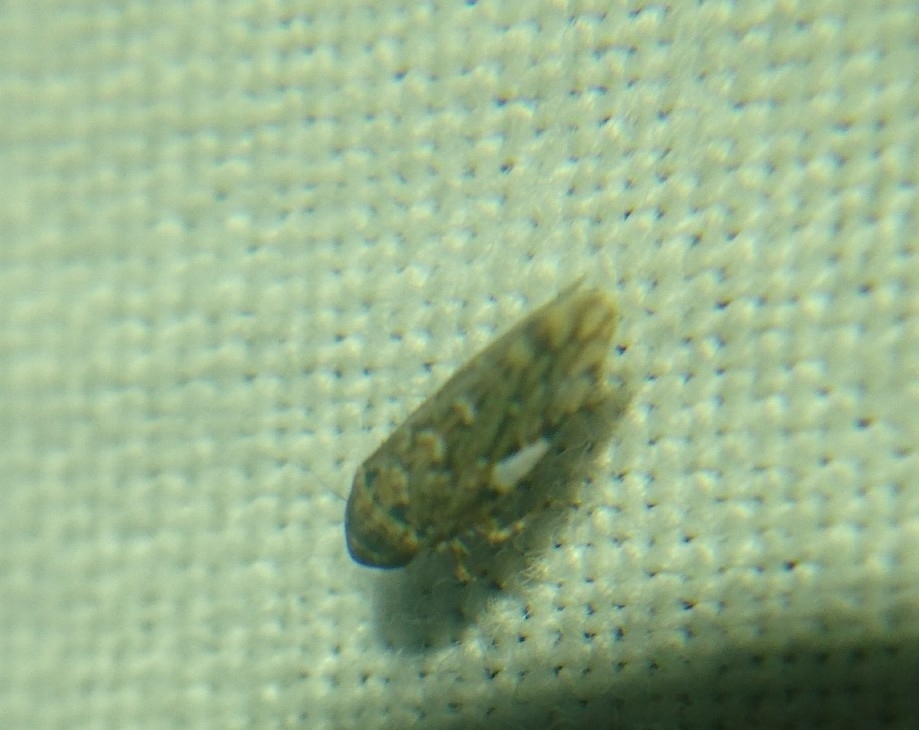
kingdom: Animalia
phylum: Arthropoda
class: Insecta
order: Hemiptera
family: Cicadellidae
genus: Xestocephalus
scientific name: Xestocephalus tessellatus
